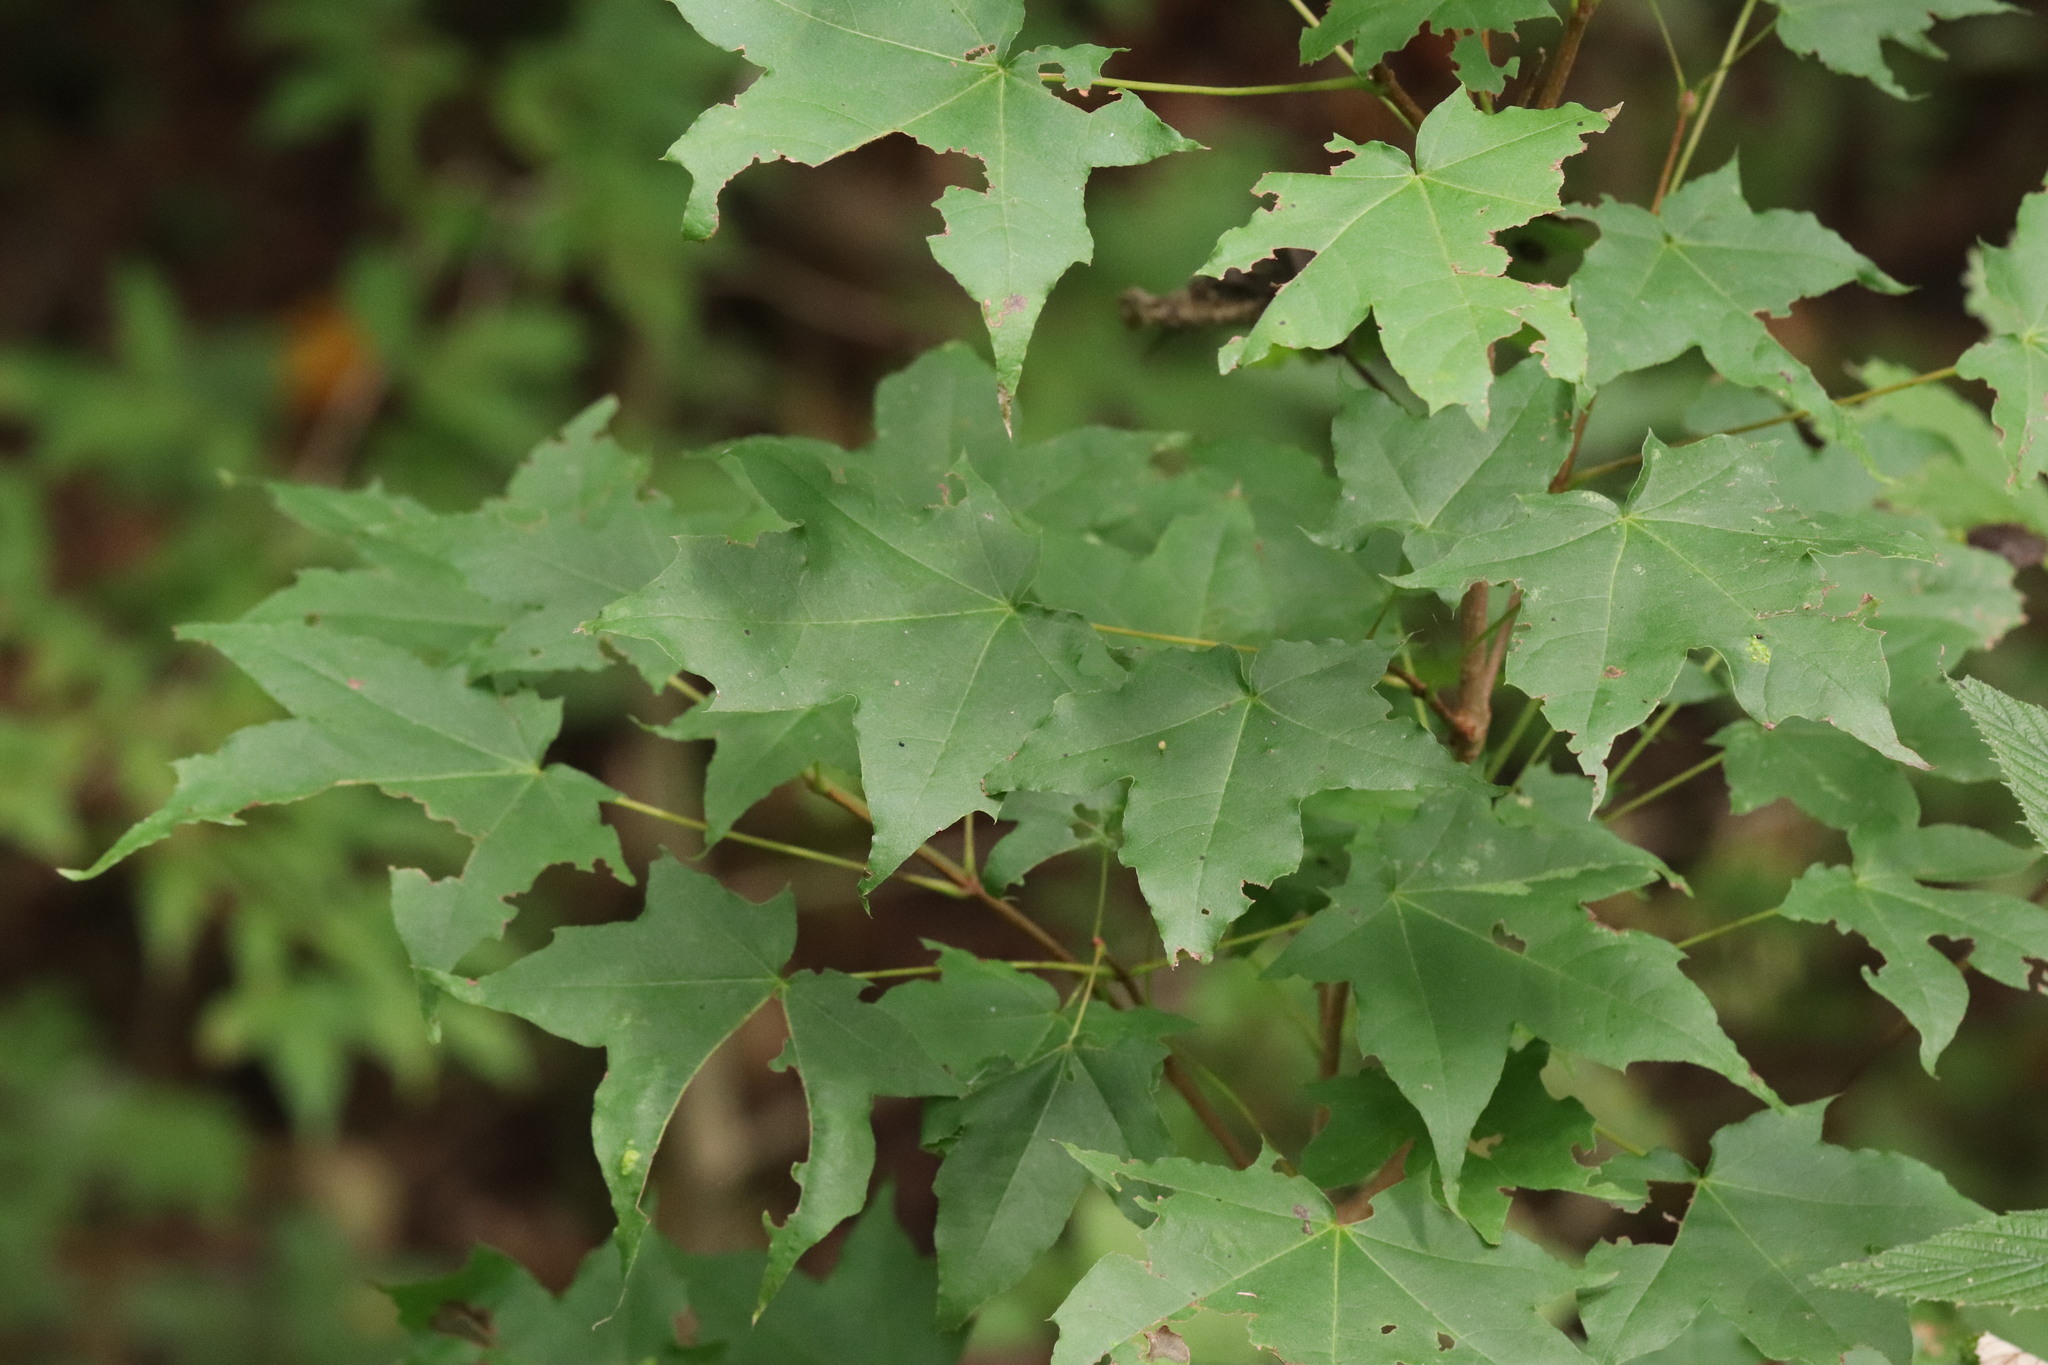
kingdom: Plantae
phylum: Tracheophyta
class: Magnoliopsida
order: Sapindales
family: Sapindaceae
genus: Acer
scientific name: Acer pictum
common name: The painted maple
